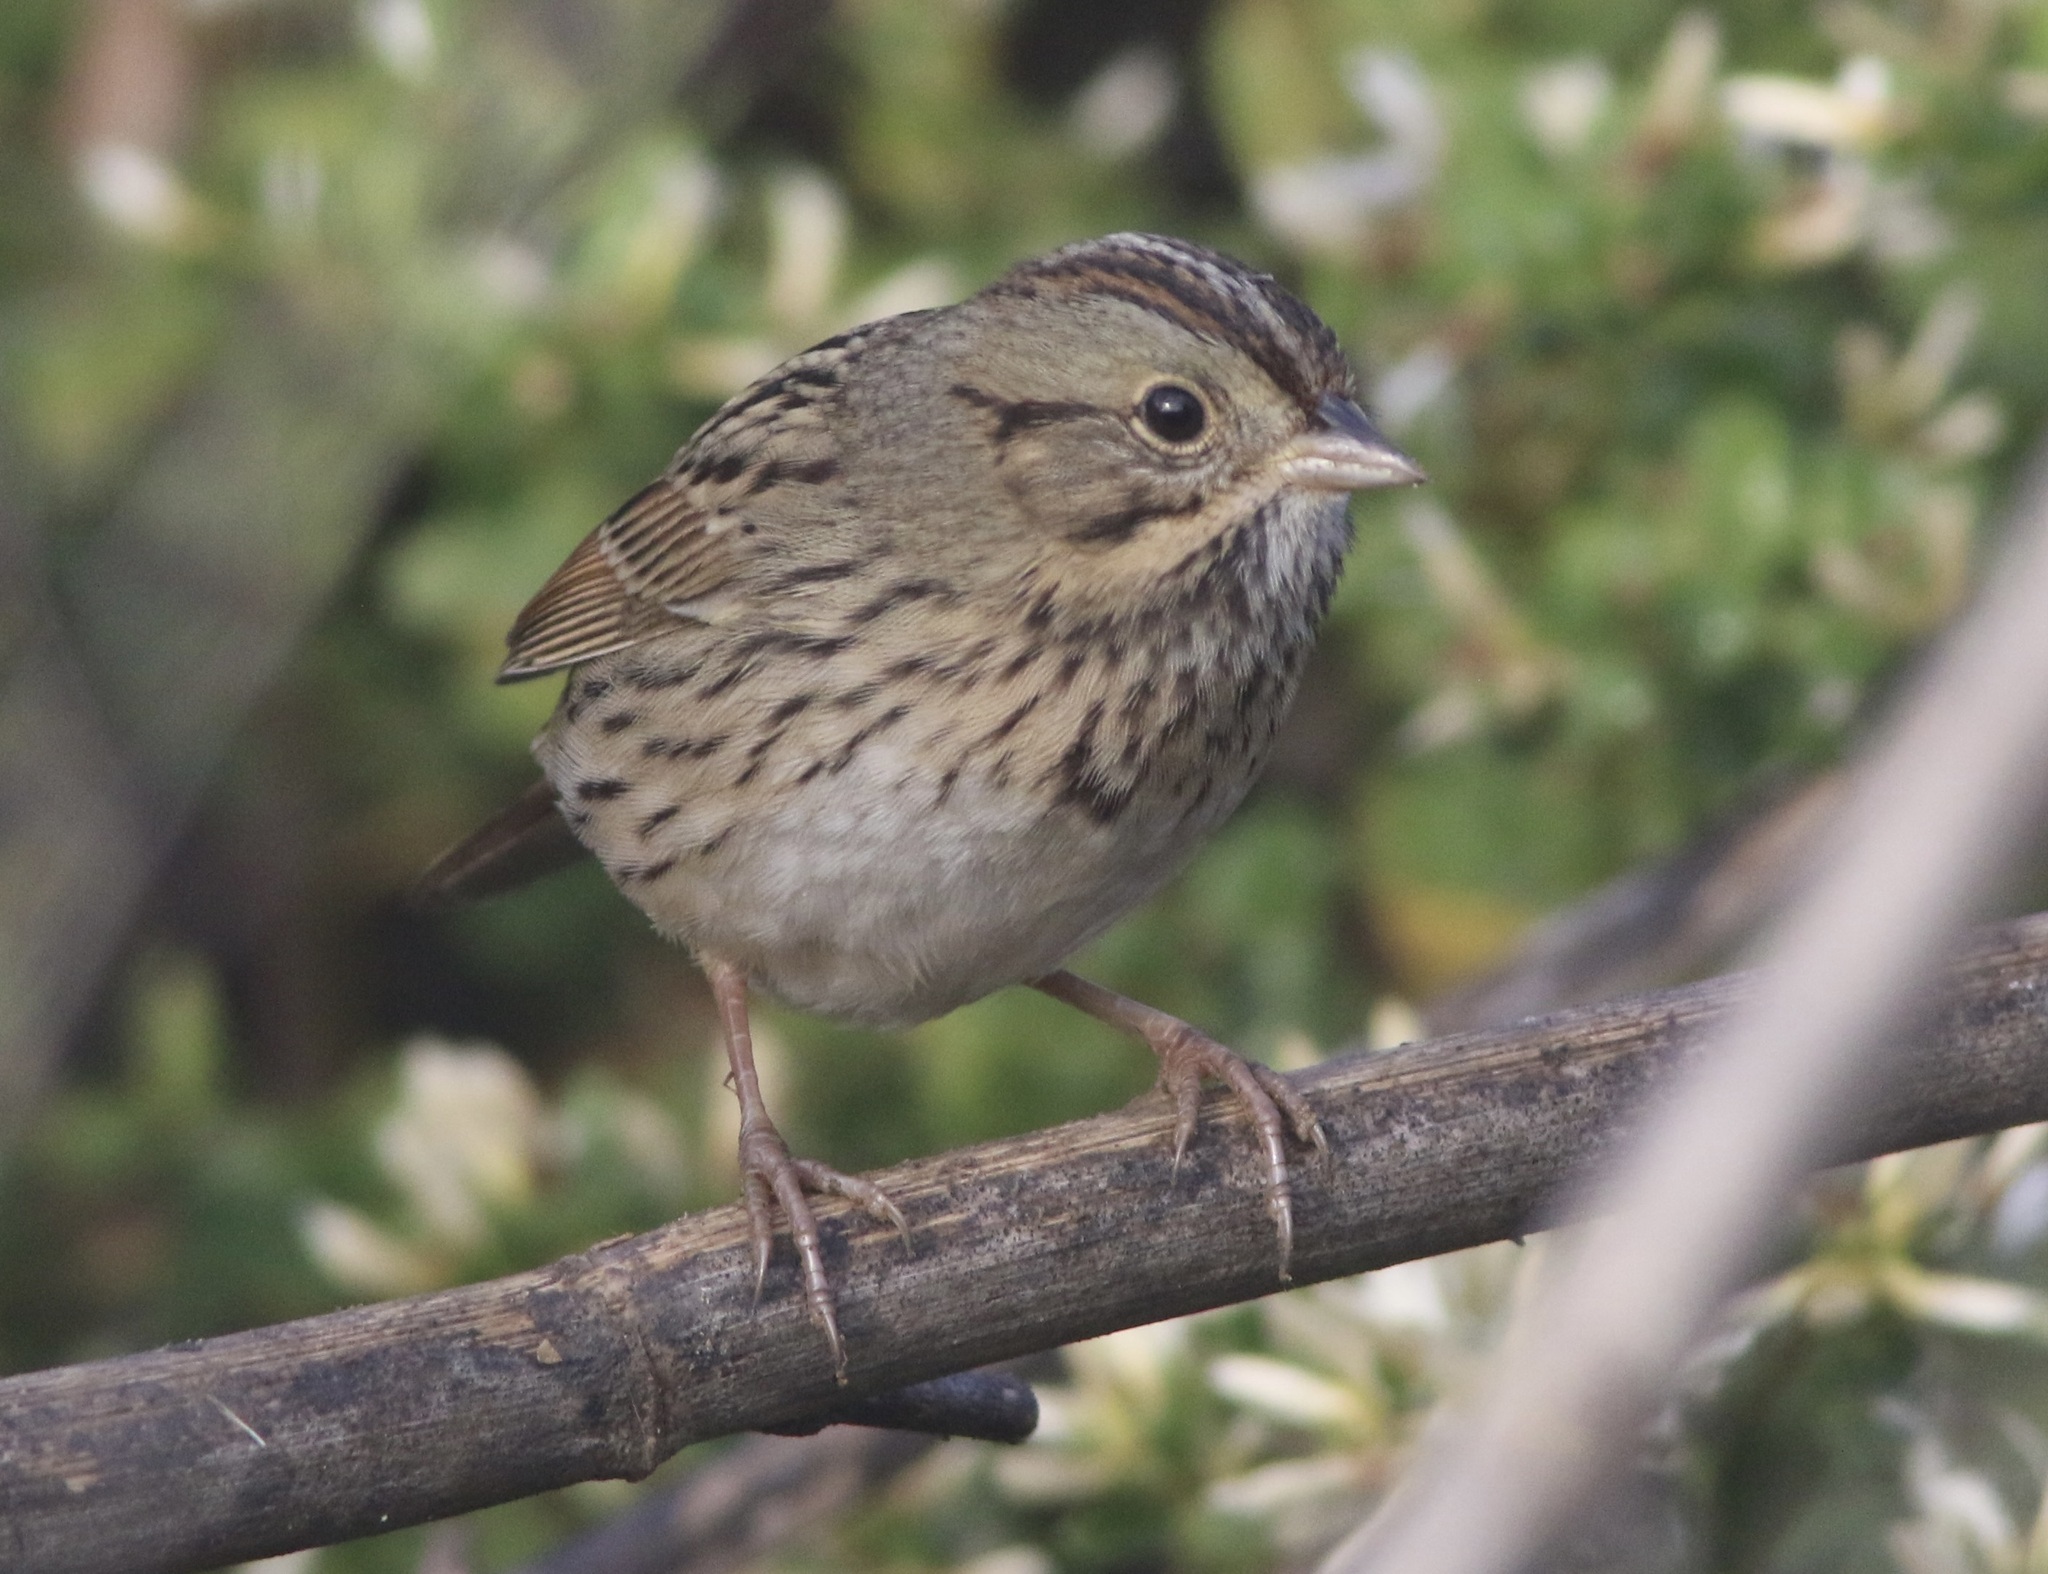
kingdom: Animalia
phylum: Chordata
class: Aves
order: Passeriformes
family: Passerellidae
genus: Melospiza
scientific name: Melospiza lincolnii
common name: Lincoln's sparrow
